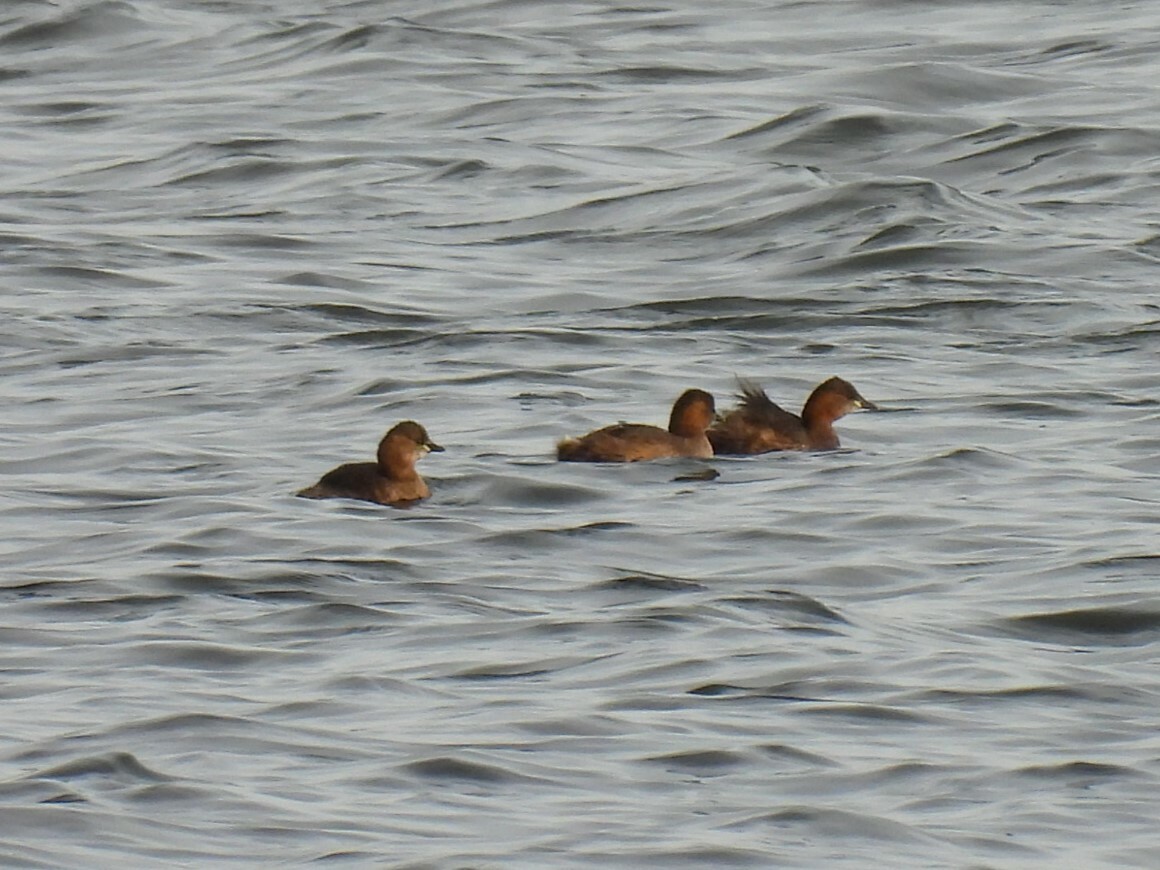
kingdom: Animalia
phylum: Chordata
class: Aves
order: Podicipediformes
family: Podicipedidae
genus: Tachybaptus
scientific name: Tachybaptus ruficollis
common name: Little grebe
